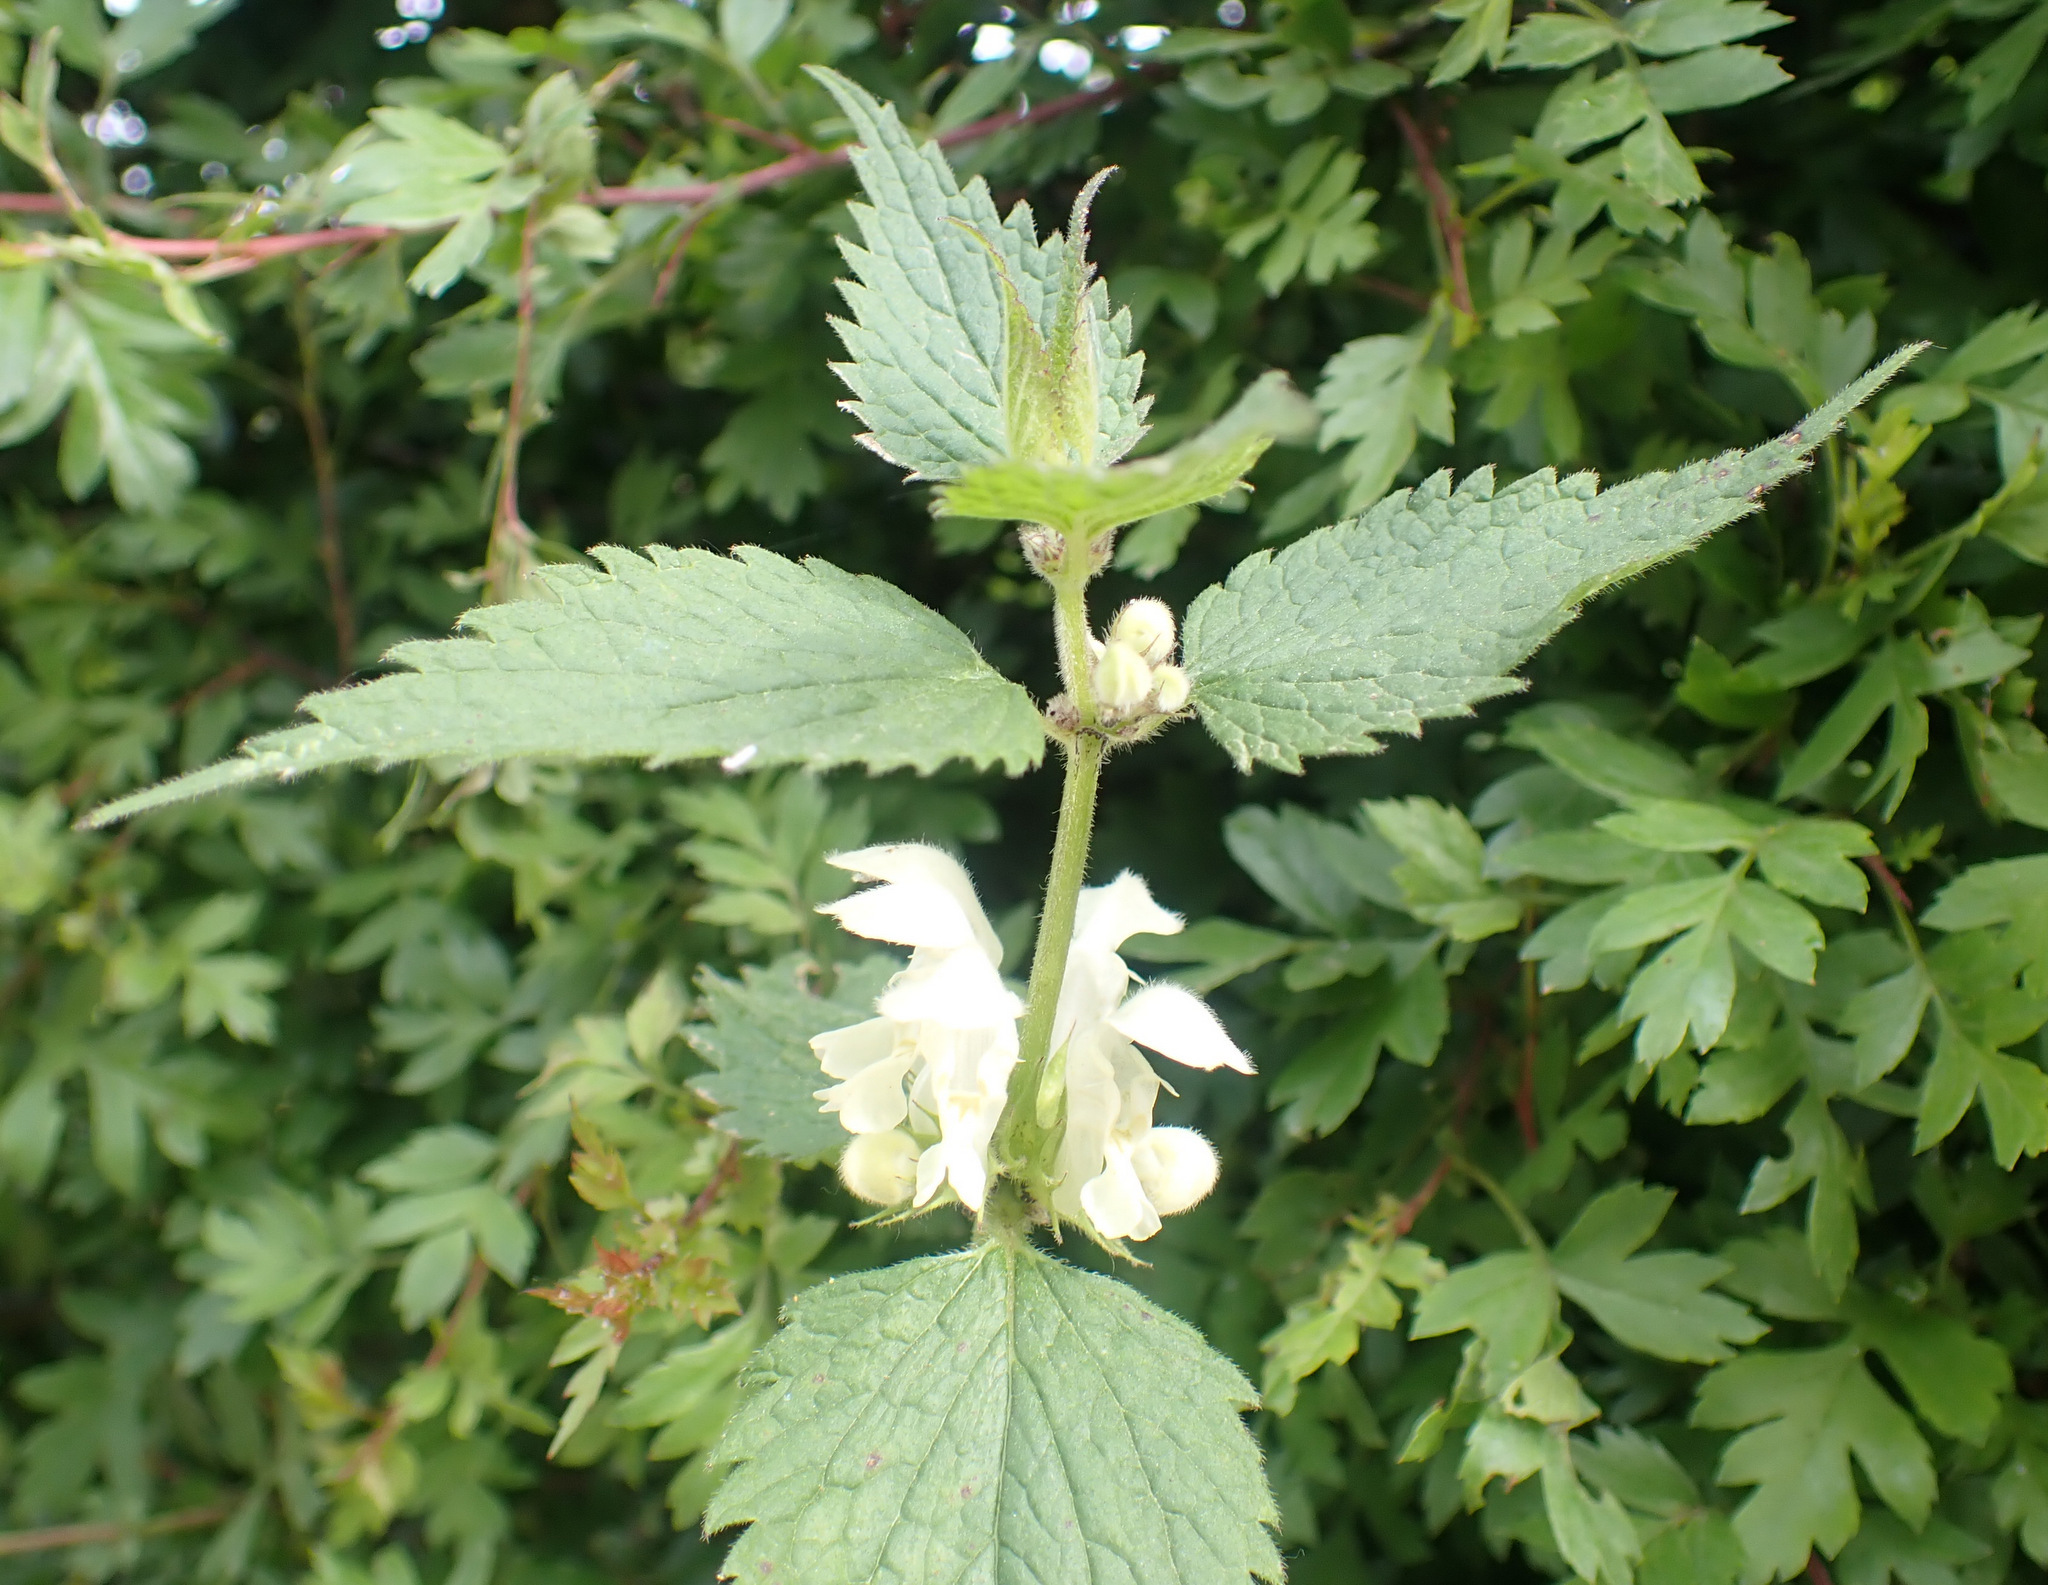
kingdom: Plantae
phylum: Tracheophyta
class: Magnoliopsida
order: Lamiales
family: Lamiaceae
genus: Lamium
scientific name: Lamium album
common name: White dead-nettle
